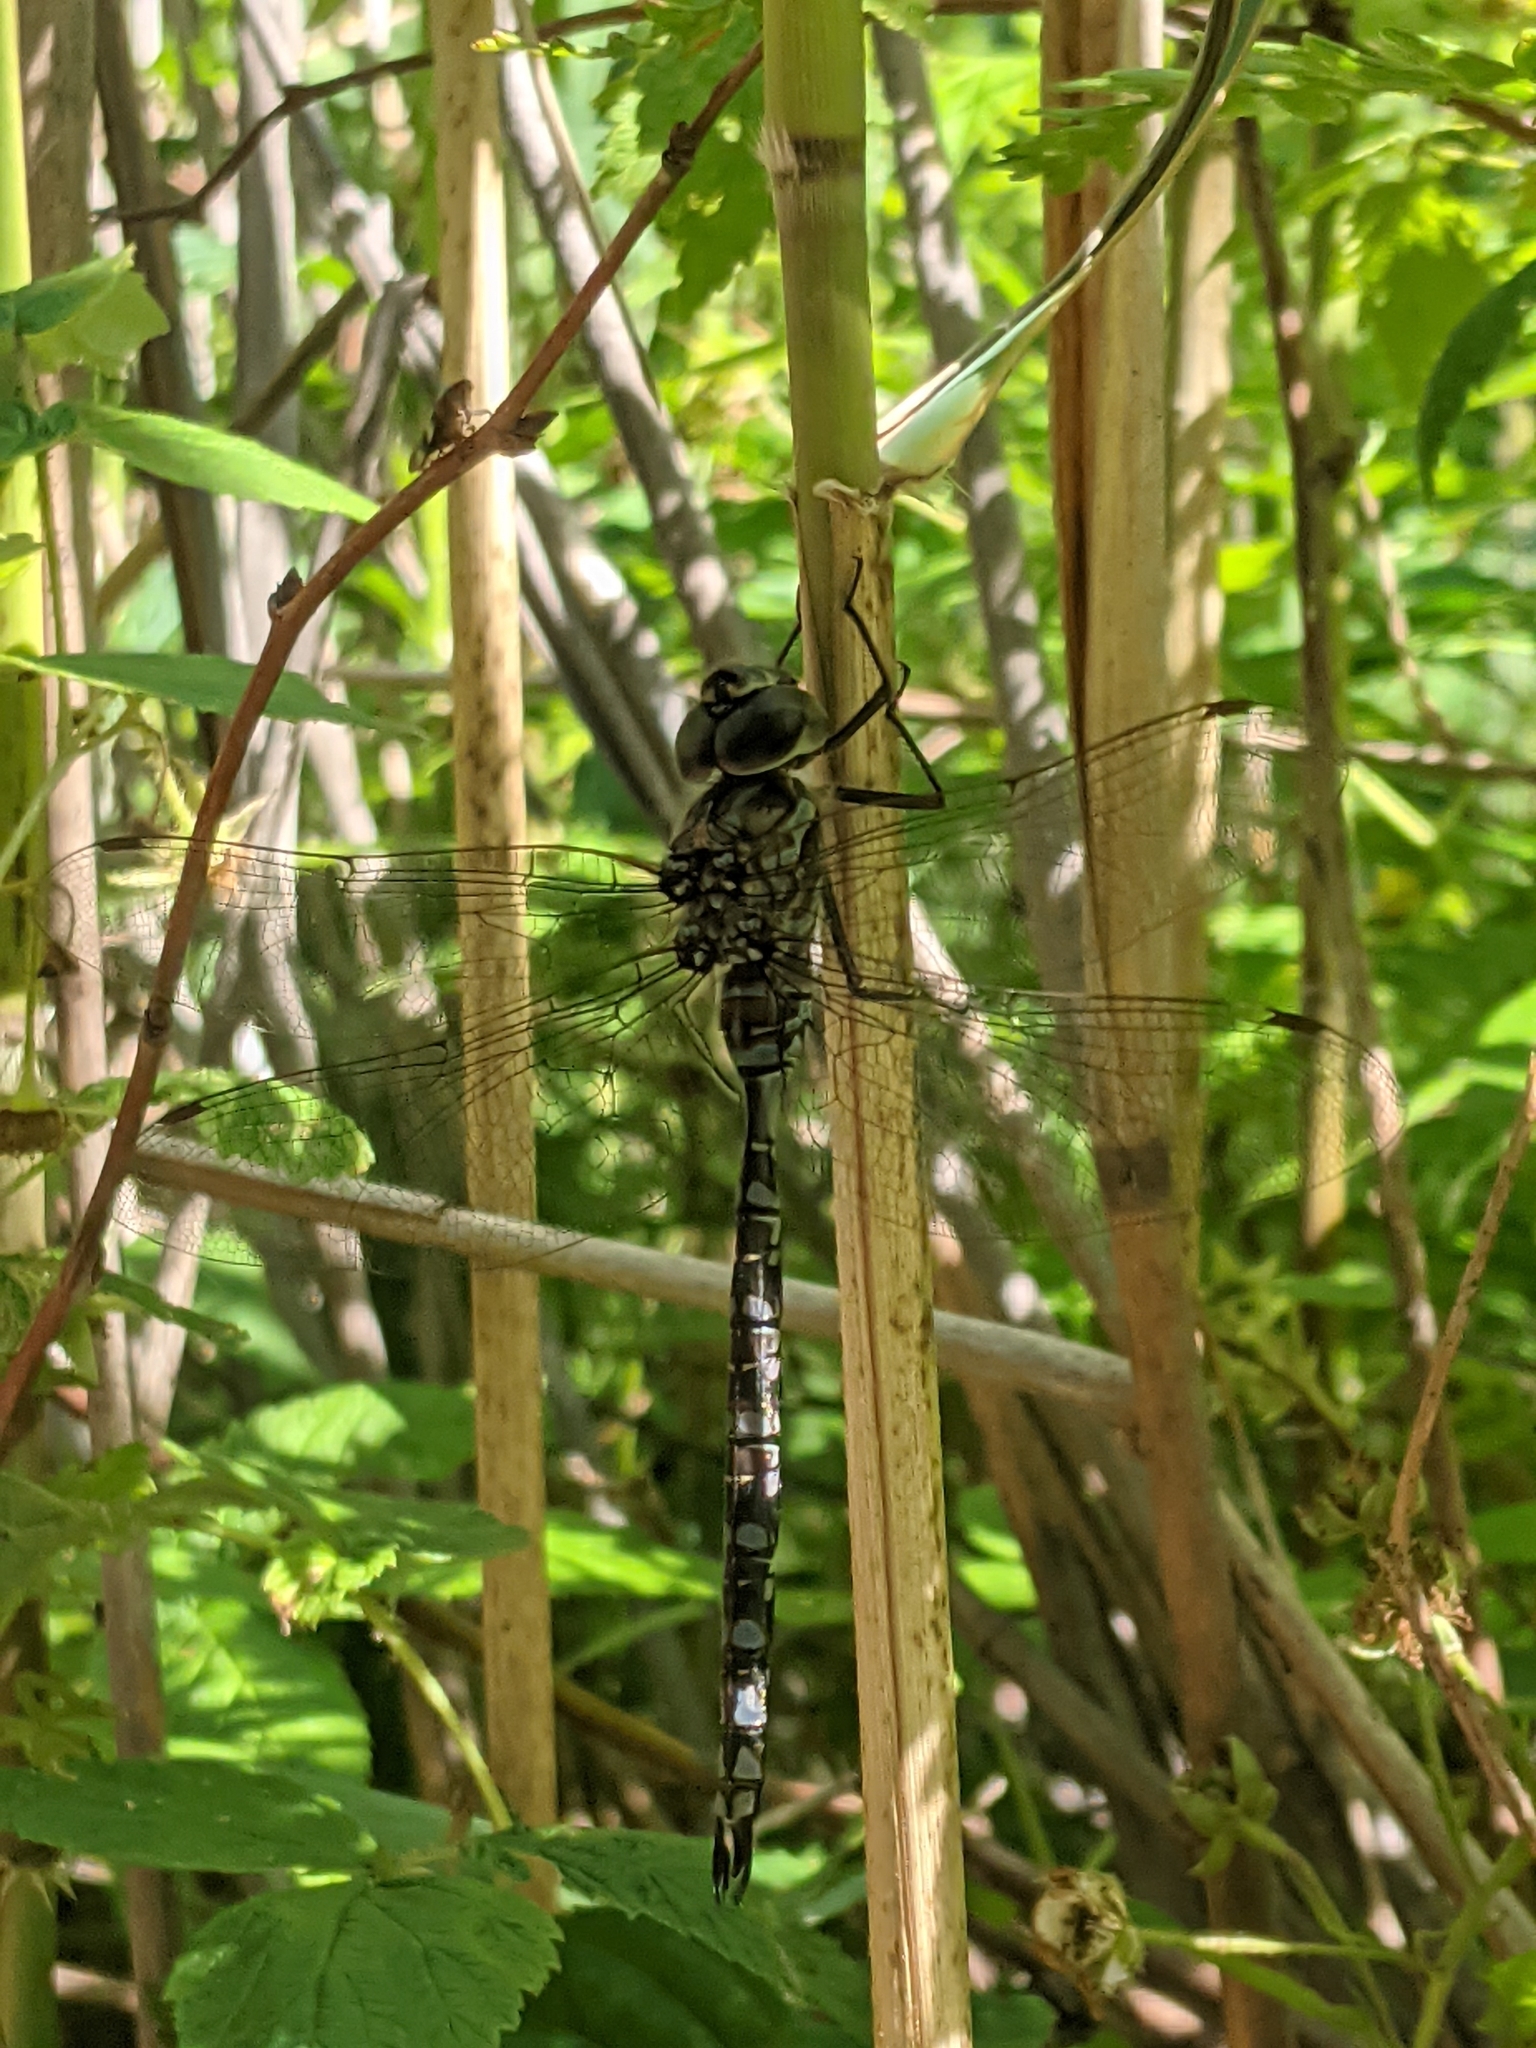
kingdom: Animalia
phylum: Arthropoda
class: Insecta
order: Odonata
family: Aeshnidae
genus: Aeshna
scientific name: Aeshna canadensis
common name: Canada darner
